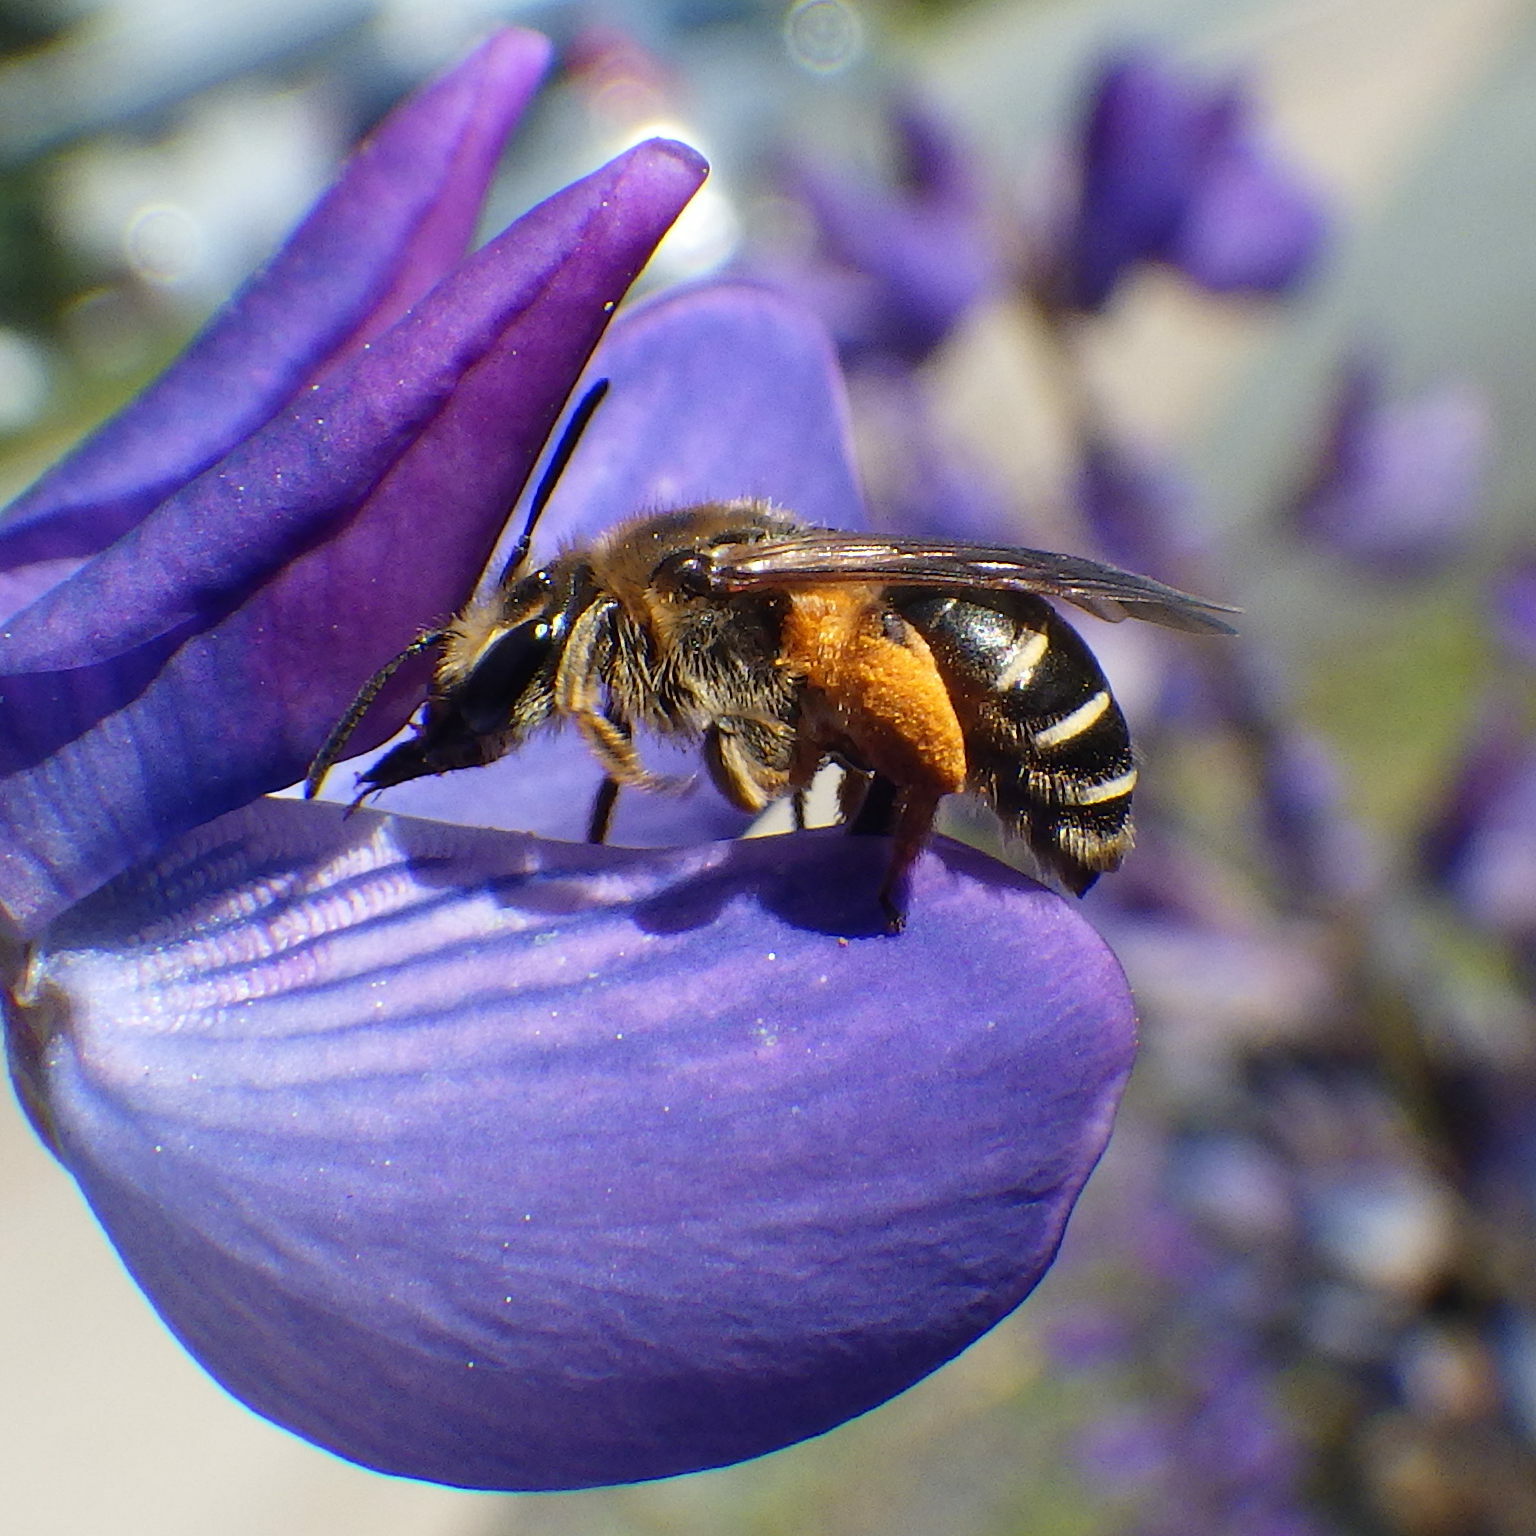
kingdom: Animalia
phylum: Arthropoda
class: Insecta
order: Hymenoptera
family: Andrenidae
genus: Andrena
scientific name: Andrena wilkella
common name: Wilke's mining bee
